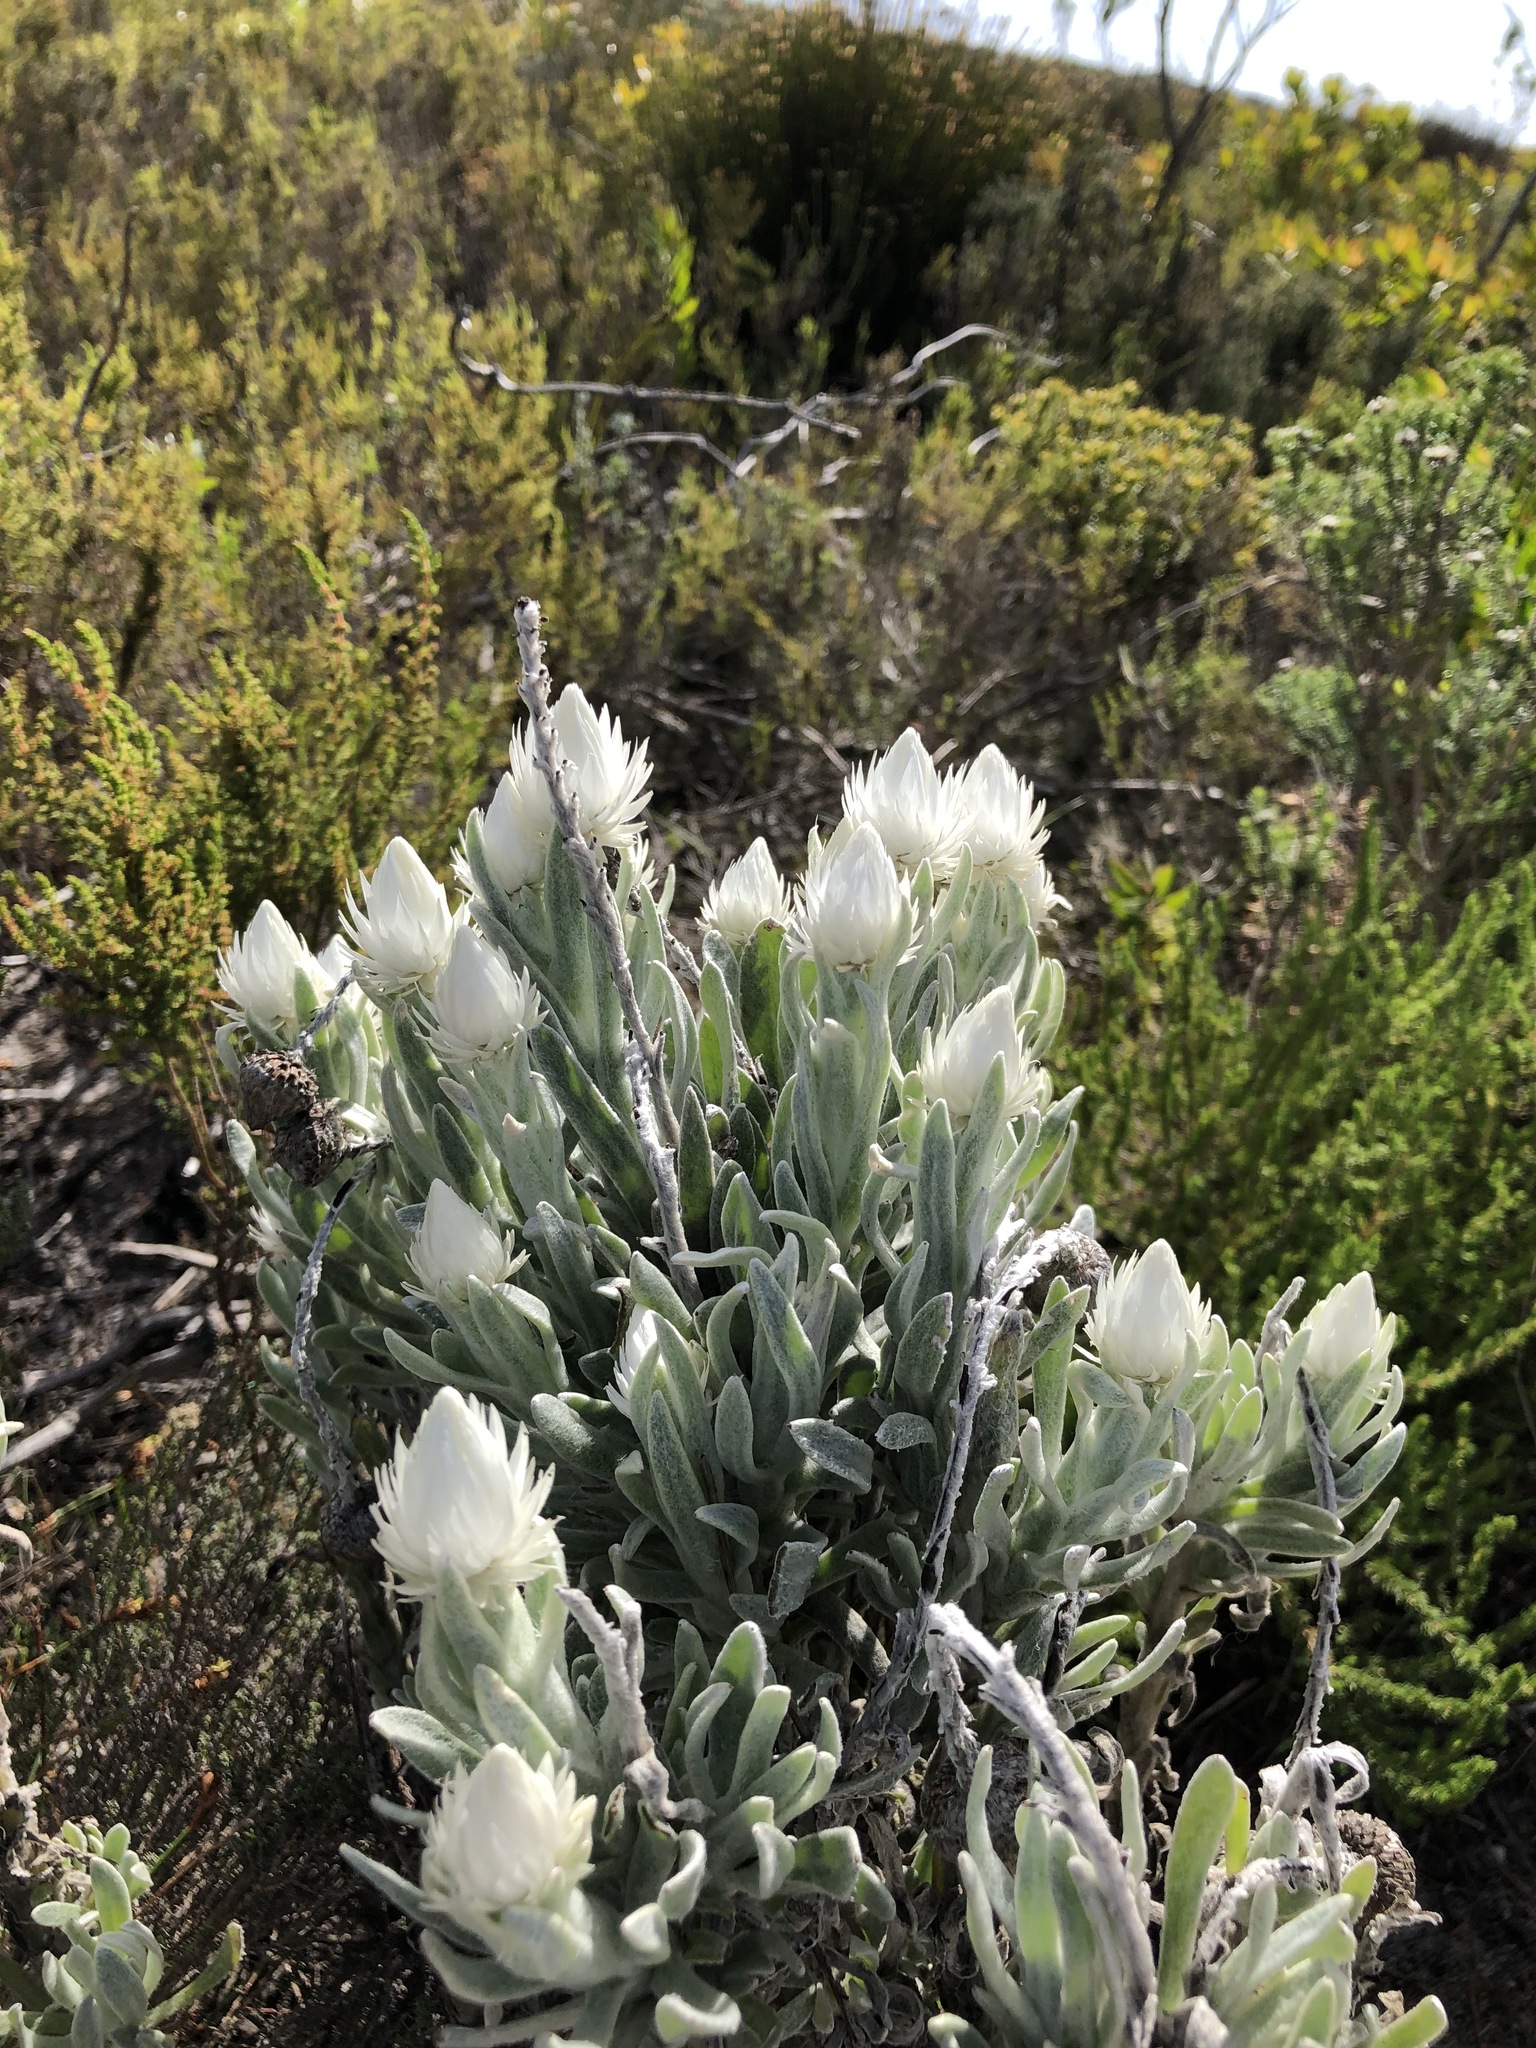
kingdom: Plantae
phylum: Tracheophyta
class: Magnoliopsida
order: Asterales
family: Asteraceae
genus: Syncarpha
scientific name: Syncarpha vestita
